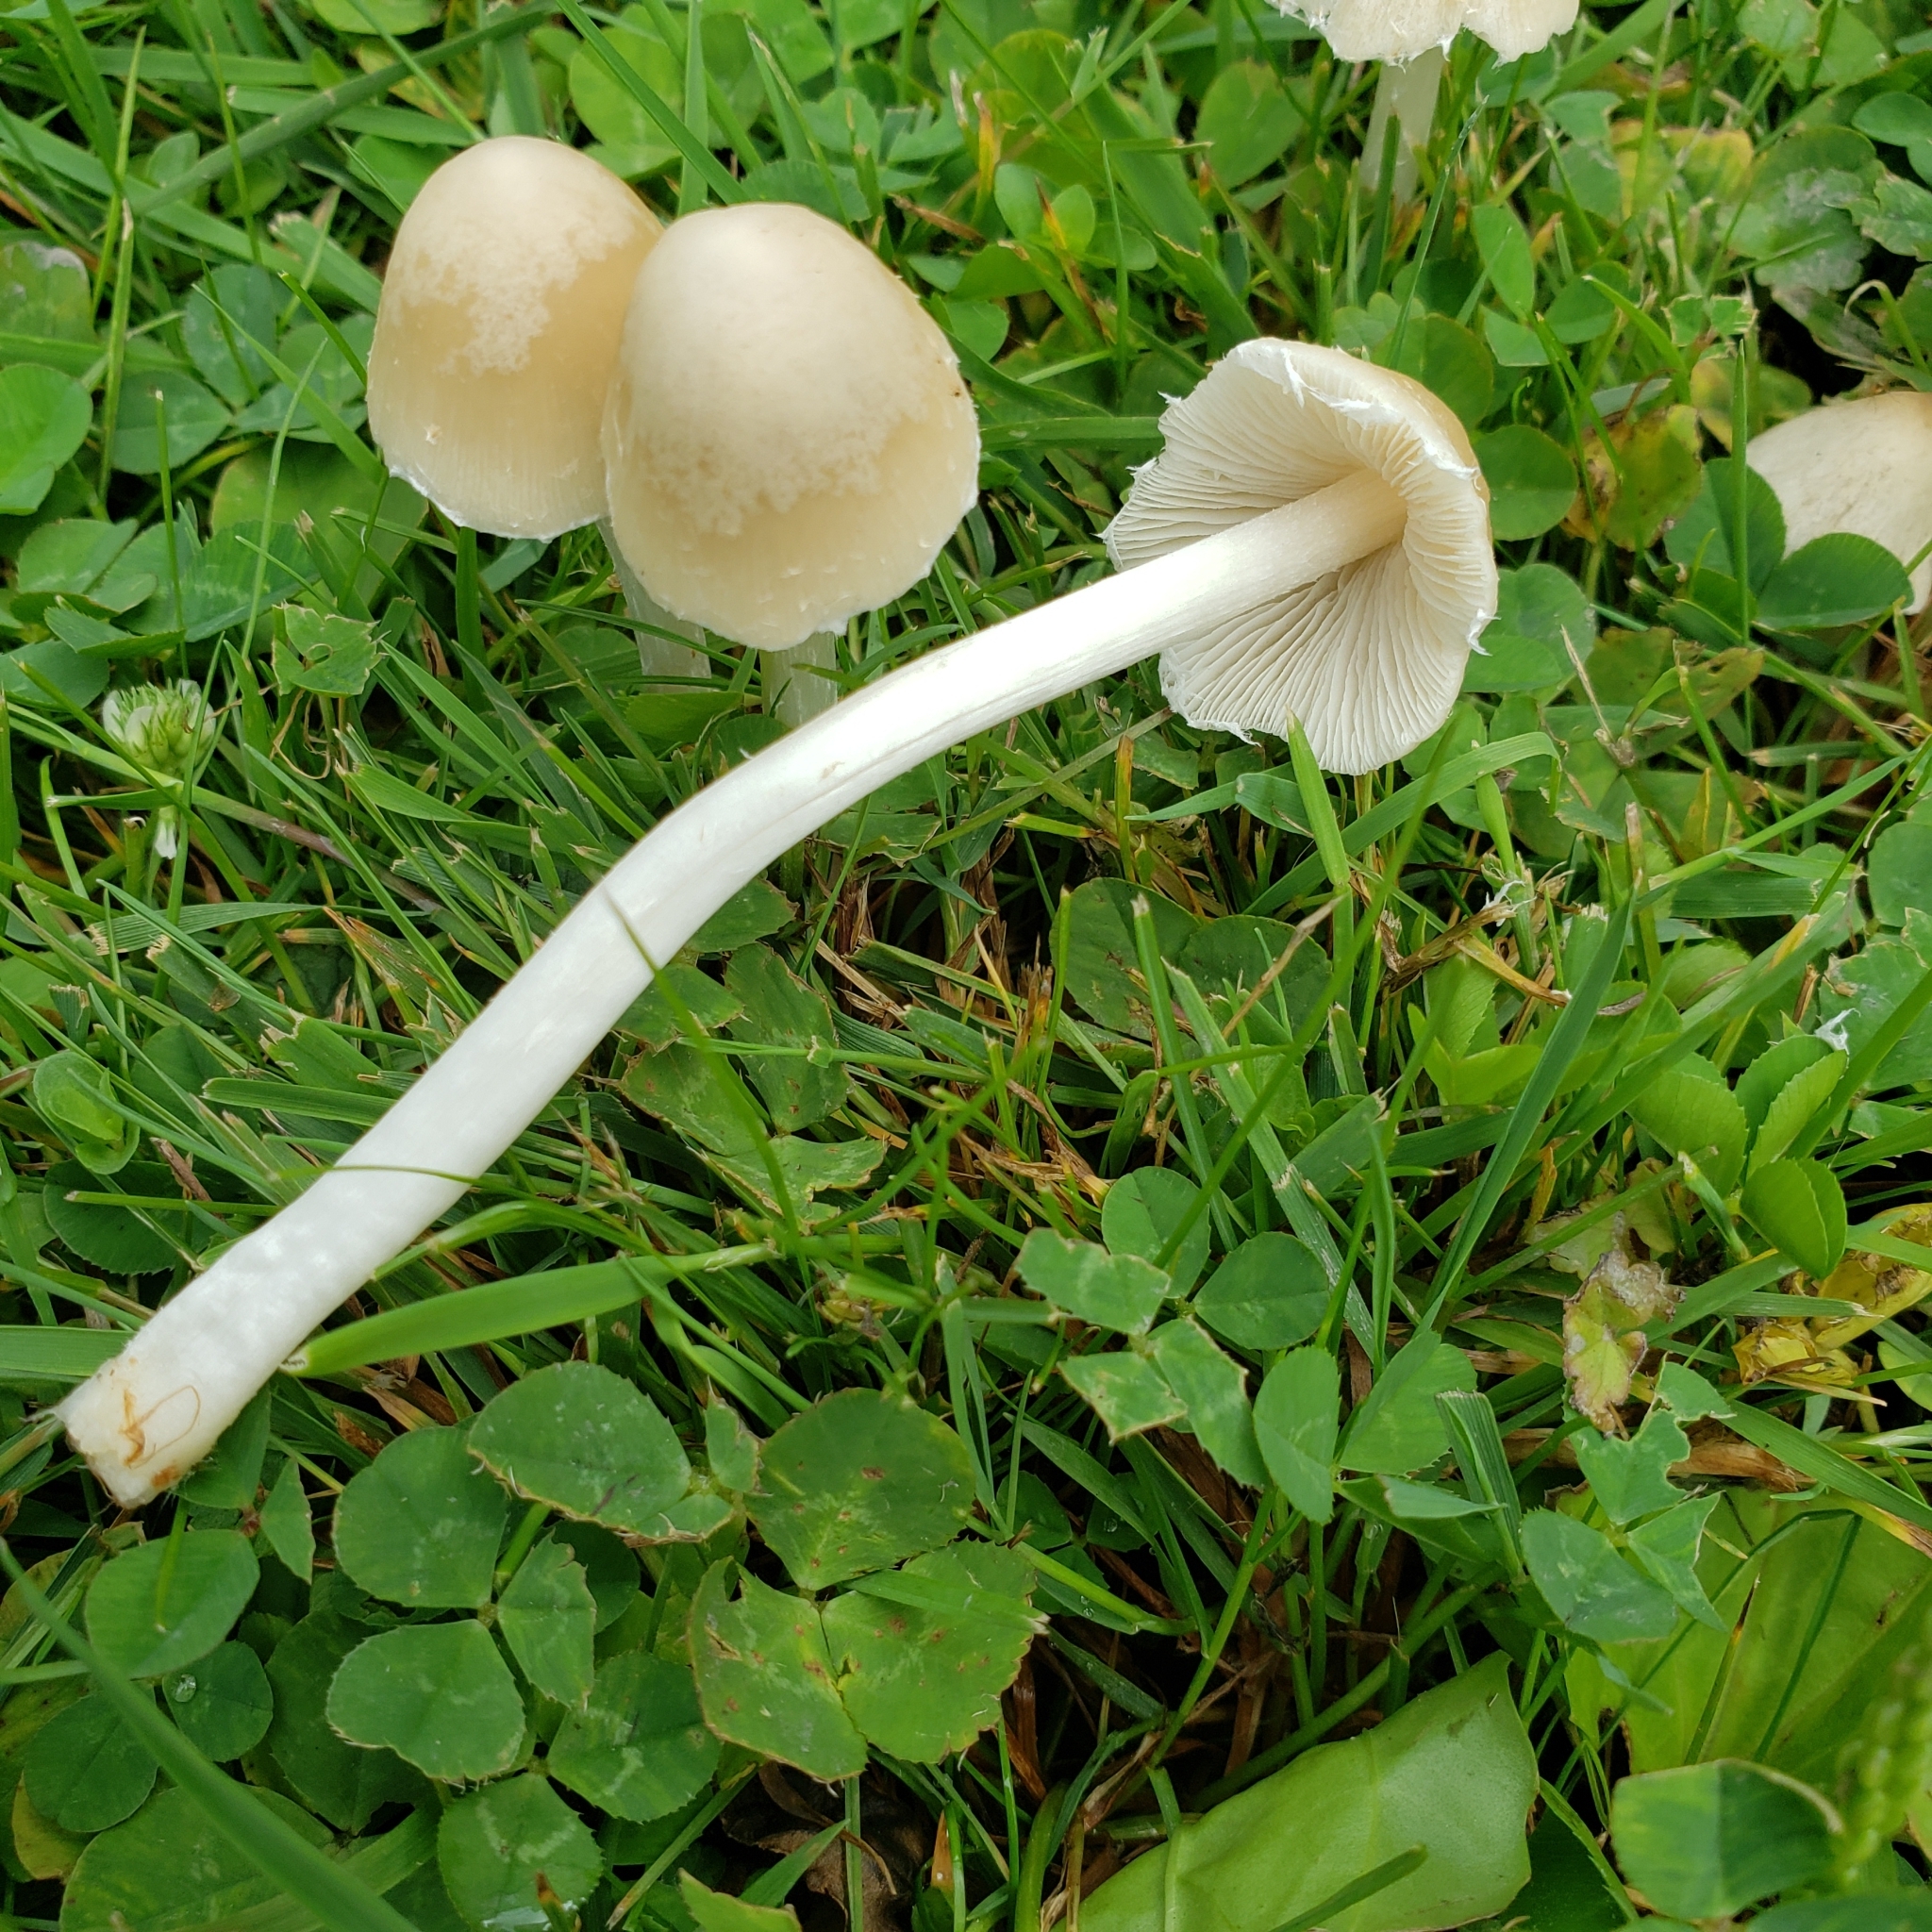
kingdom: Fungi
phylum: Basidiomycota
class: Agaricomycetes
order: Agaricales
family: Psathyrellaceae
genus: Candolleomyces
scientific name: Candolleomyces candolleanus
